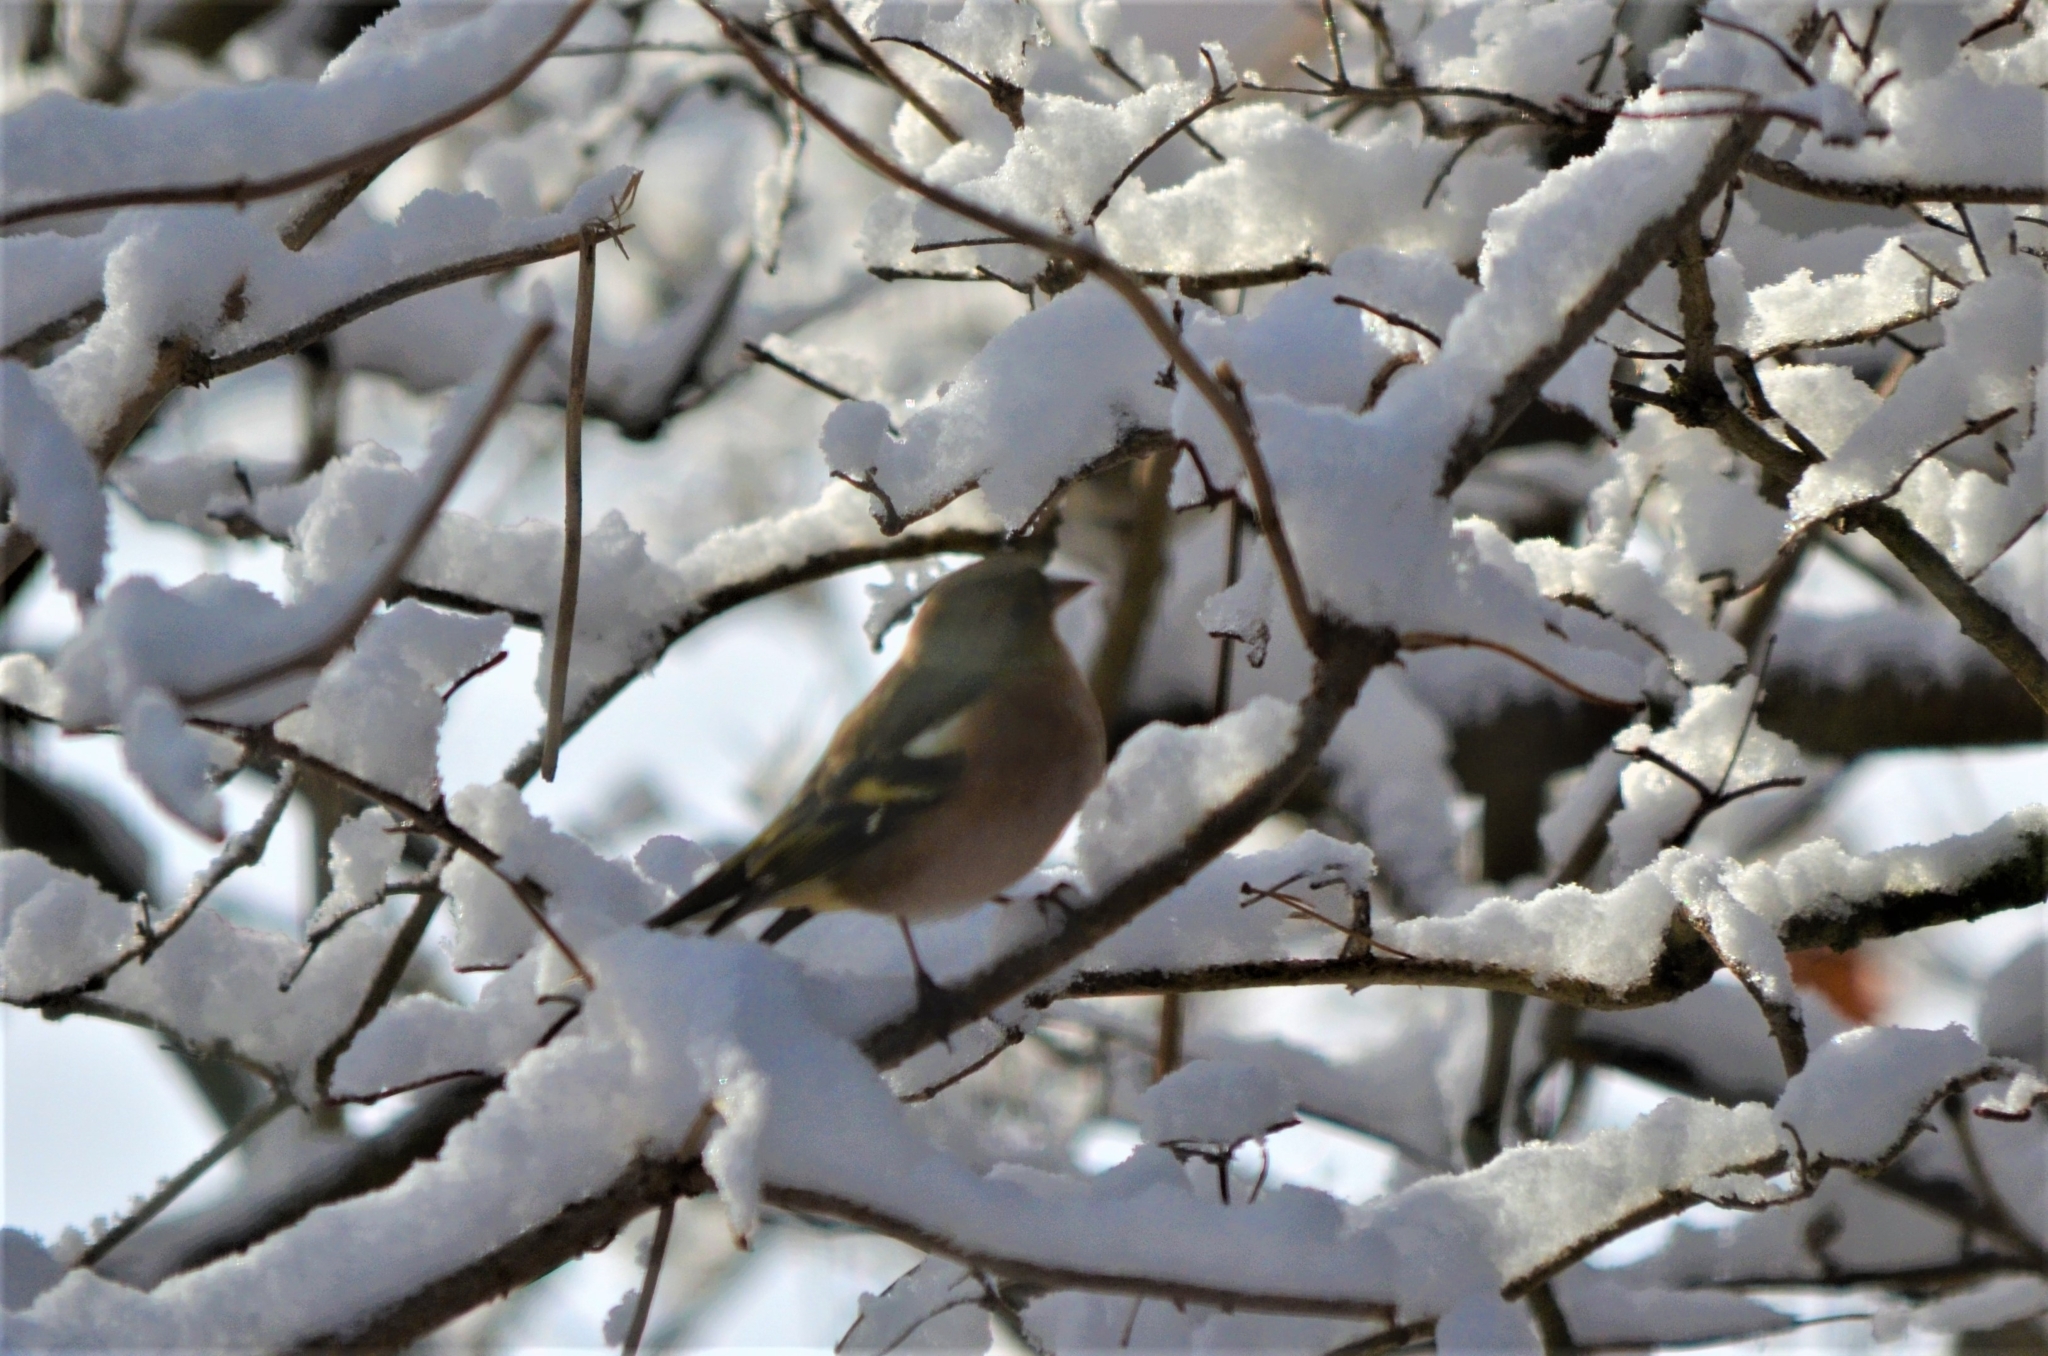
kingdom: Animalia
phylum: Chordata
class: Aves
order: Passeriformes
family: Fringillidae
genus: Fringilla
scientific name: Fringilla coelebs
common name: Common chaffinch
